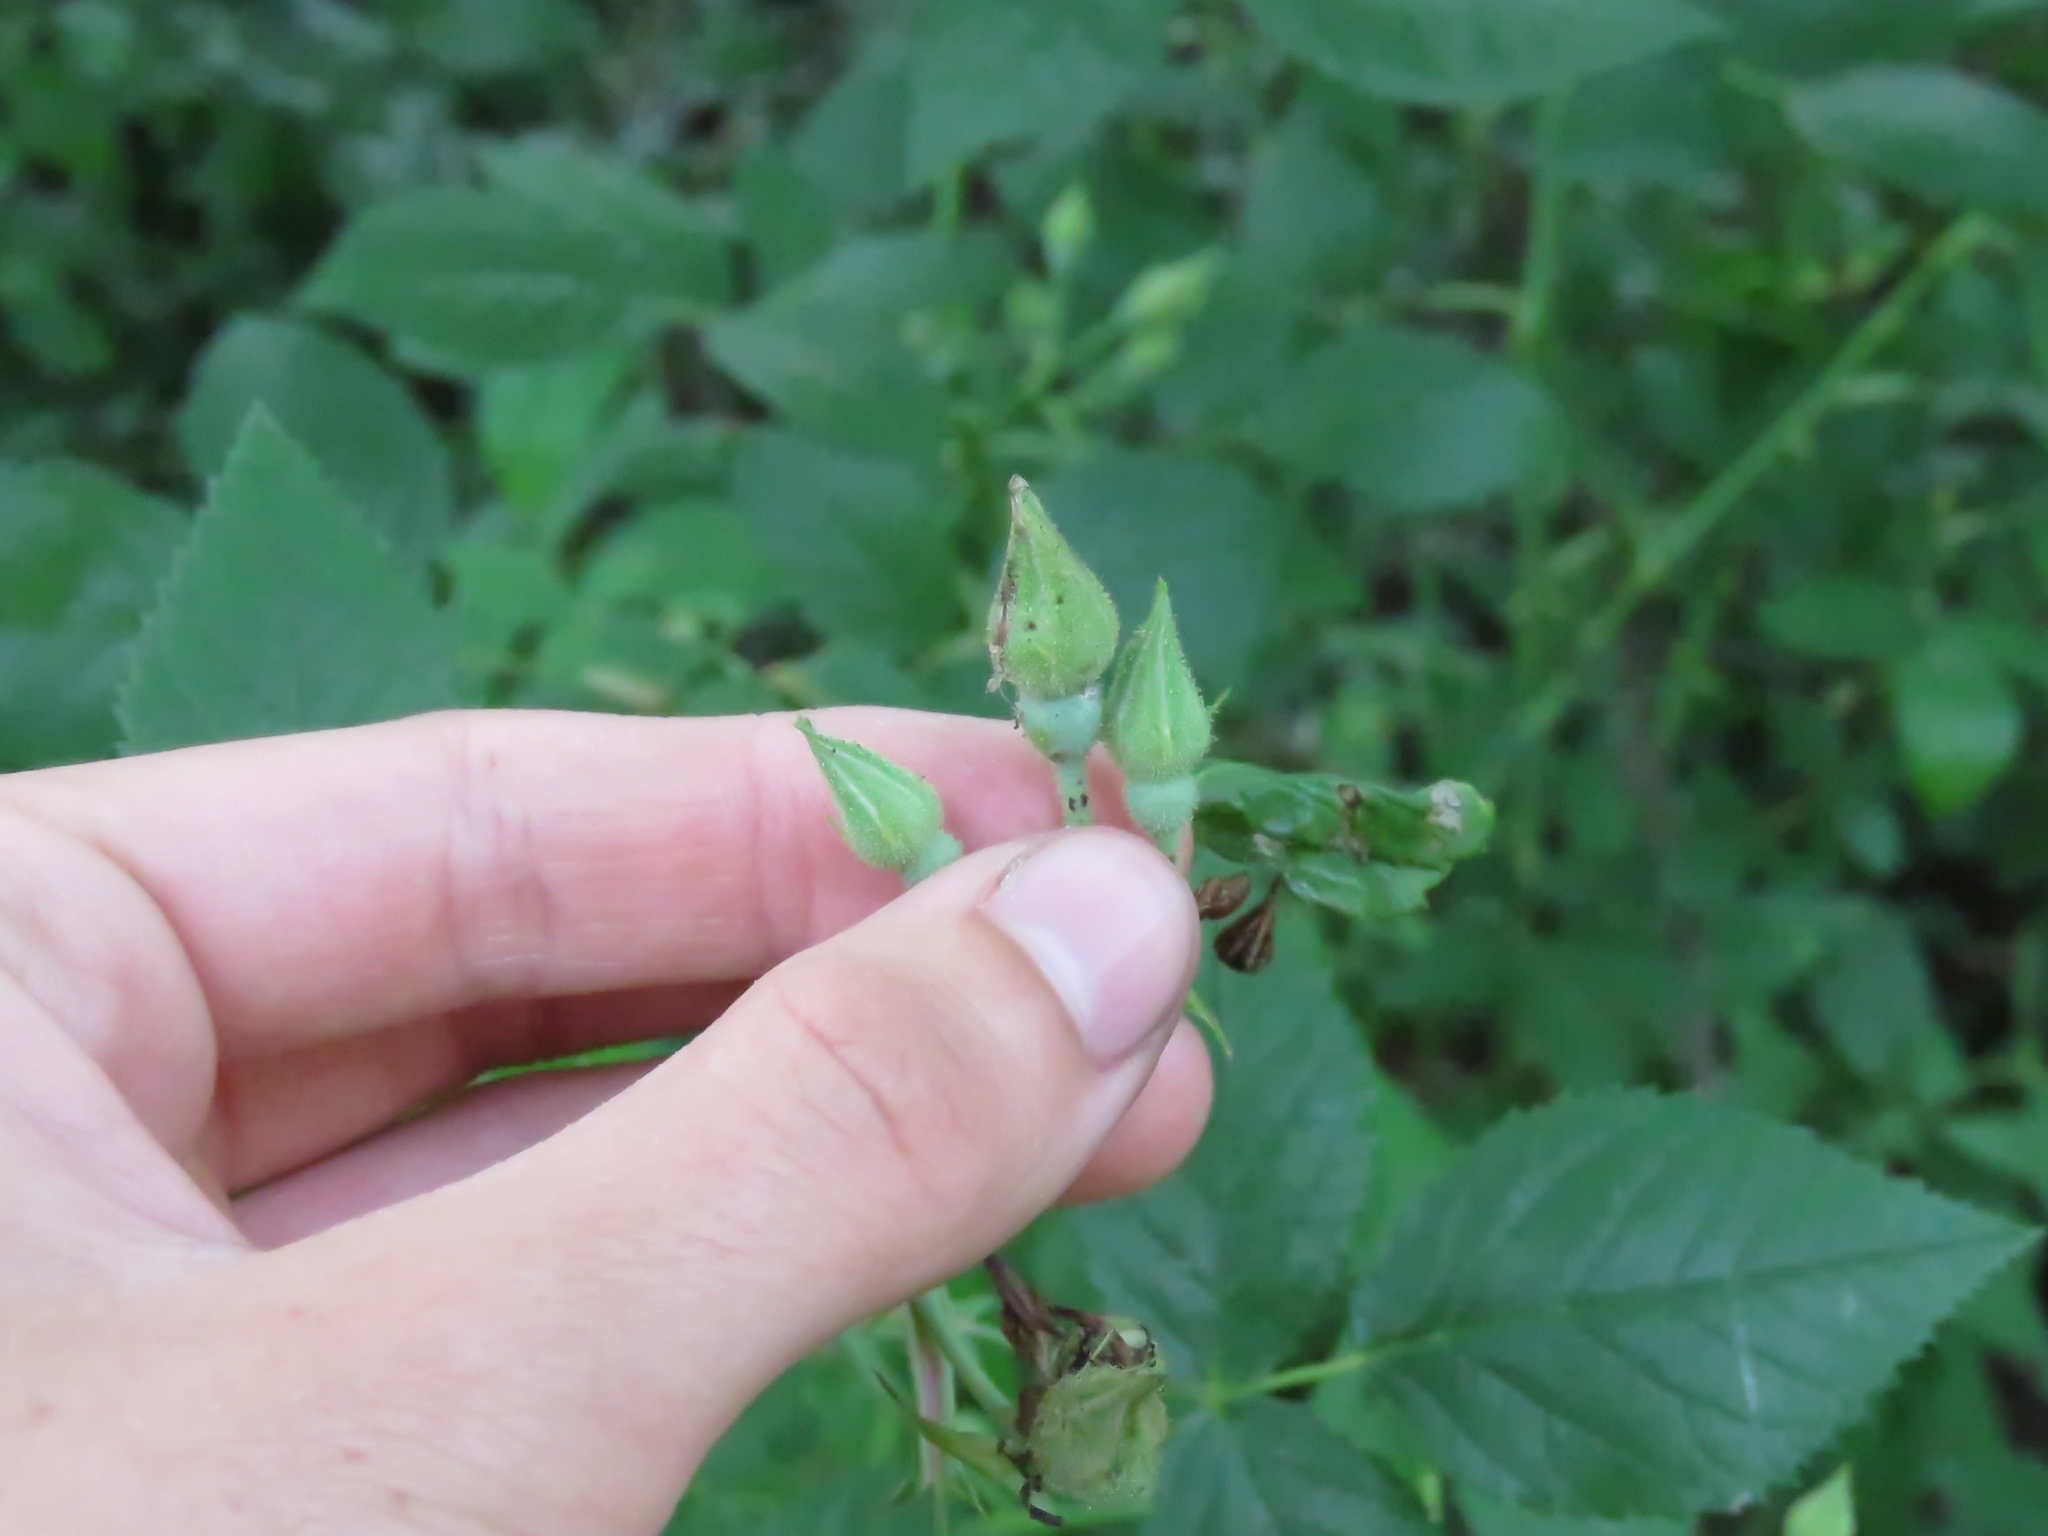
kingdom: Plantae
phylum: Tracheophyta
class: Magnoliopsida
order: Rosales
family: Rosaceae
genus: Rosa
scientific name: Rosa setigera
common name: Prairie rose
